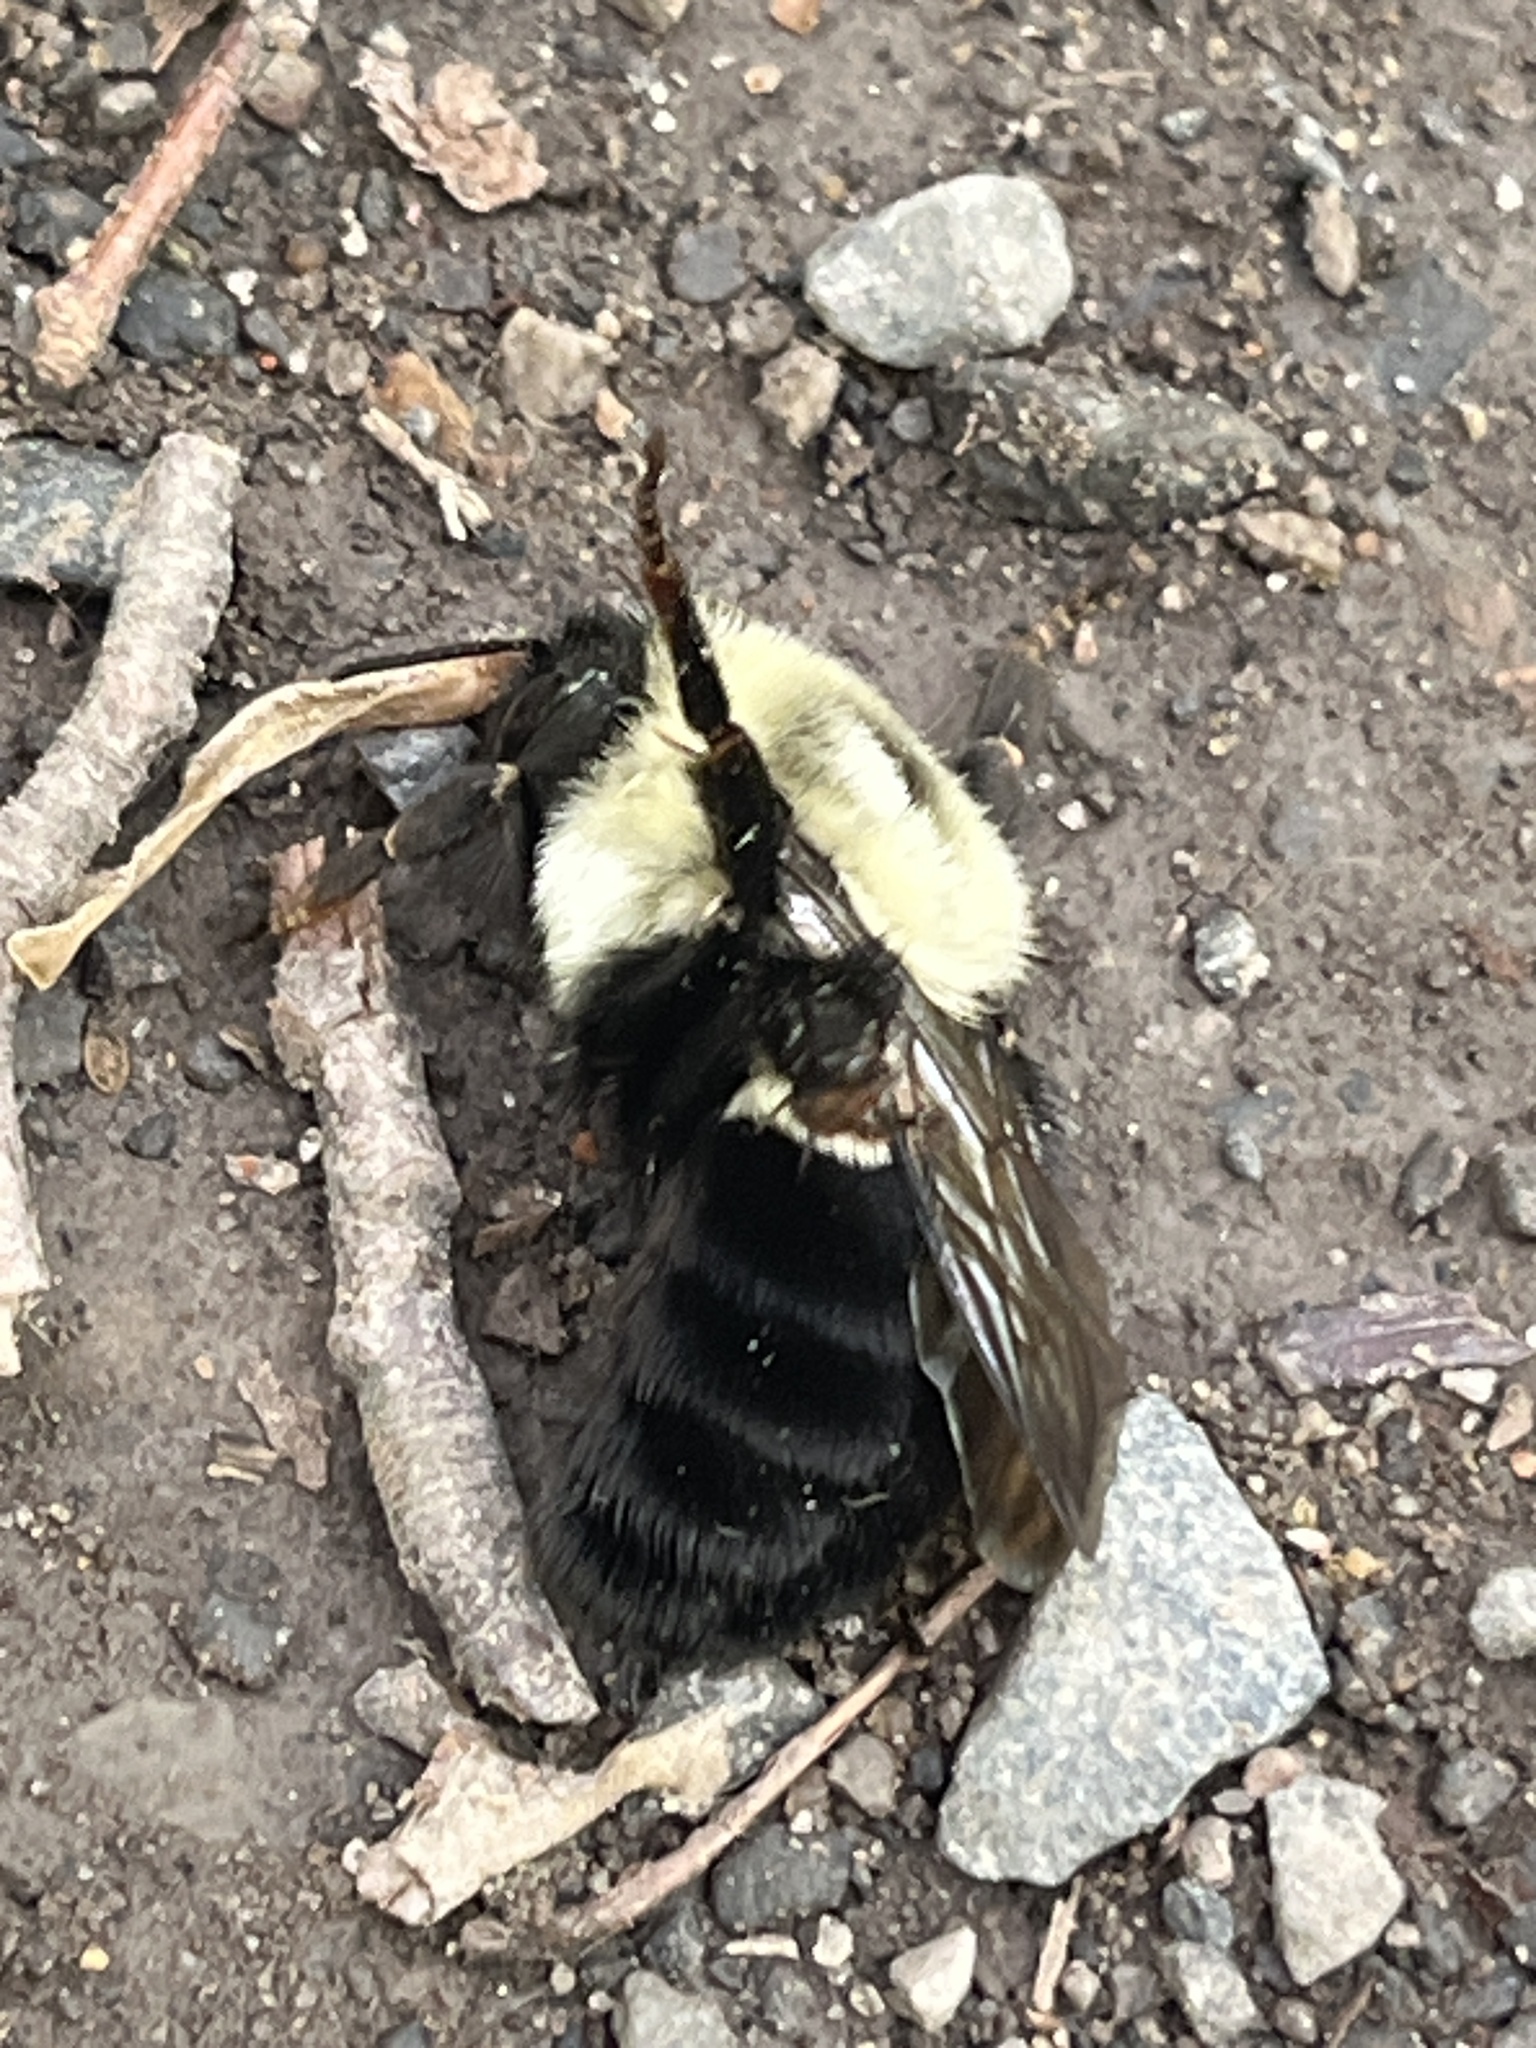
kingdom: Animalia
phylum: Arthropoda
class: Insecta
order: Hymenoptera
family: Apidae
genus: Bombus
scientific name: Bombus impatiens
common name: Common eastern bumble bee
